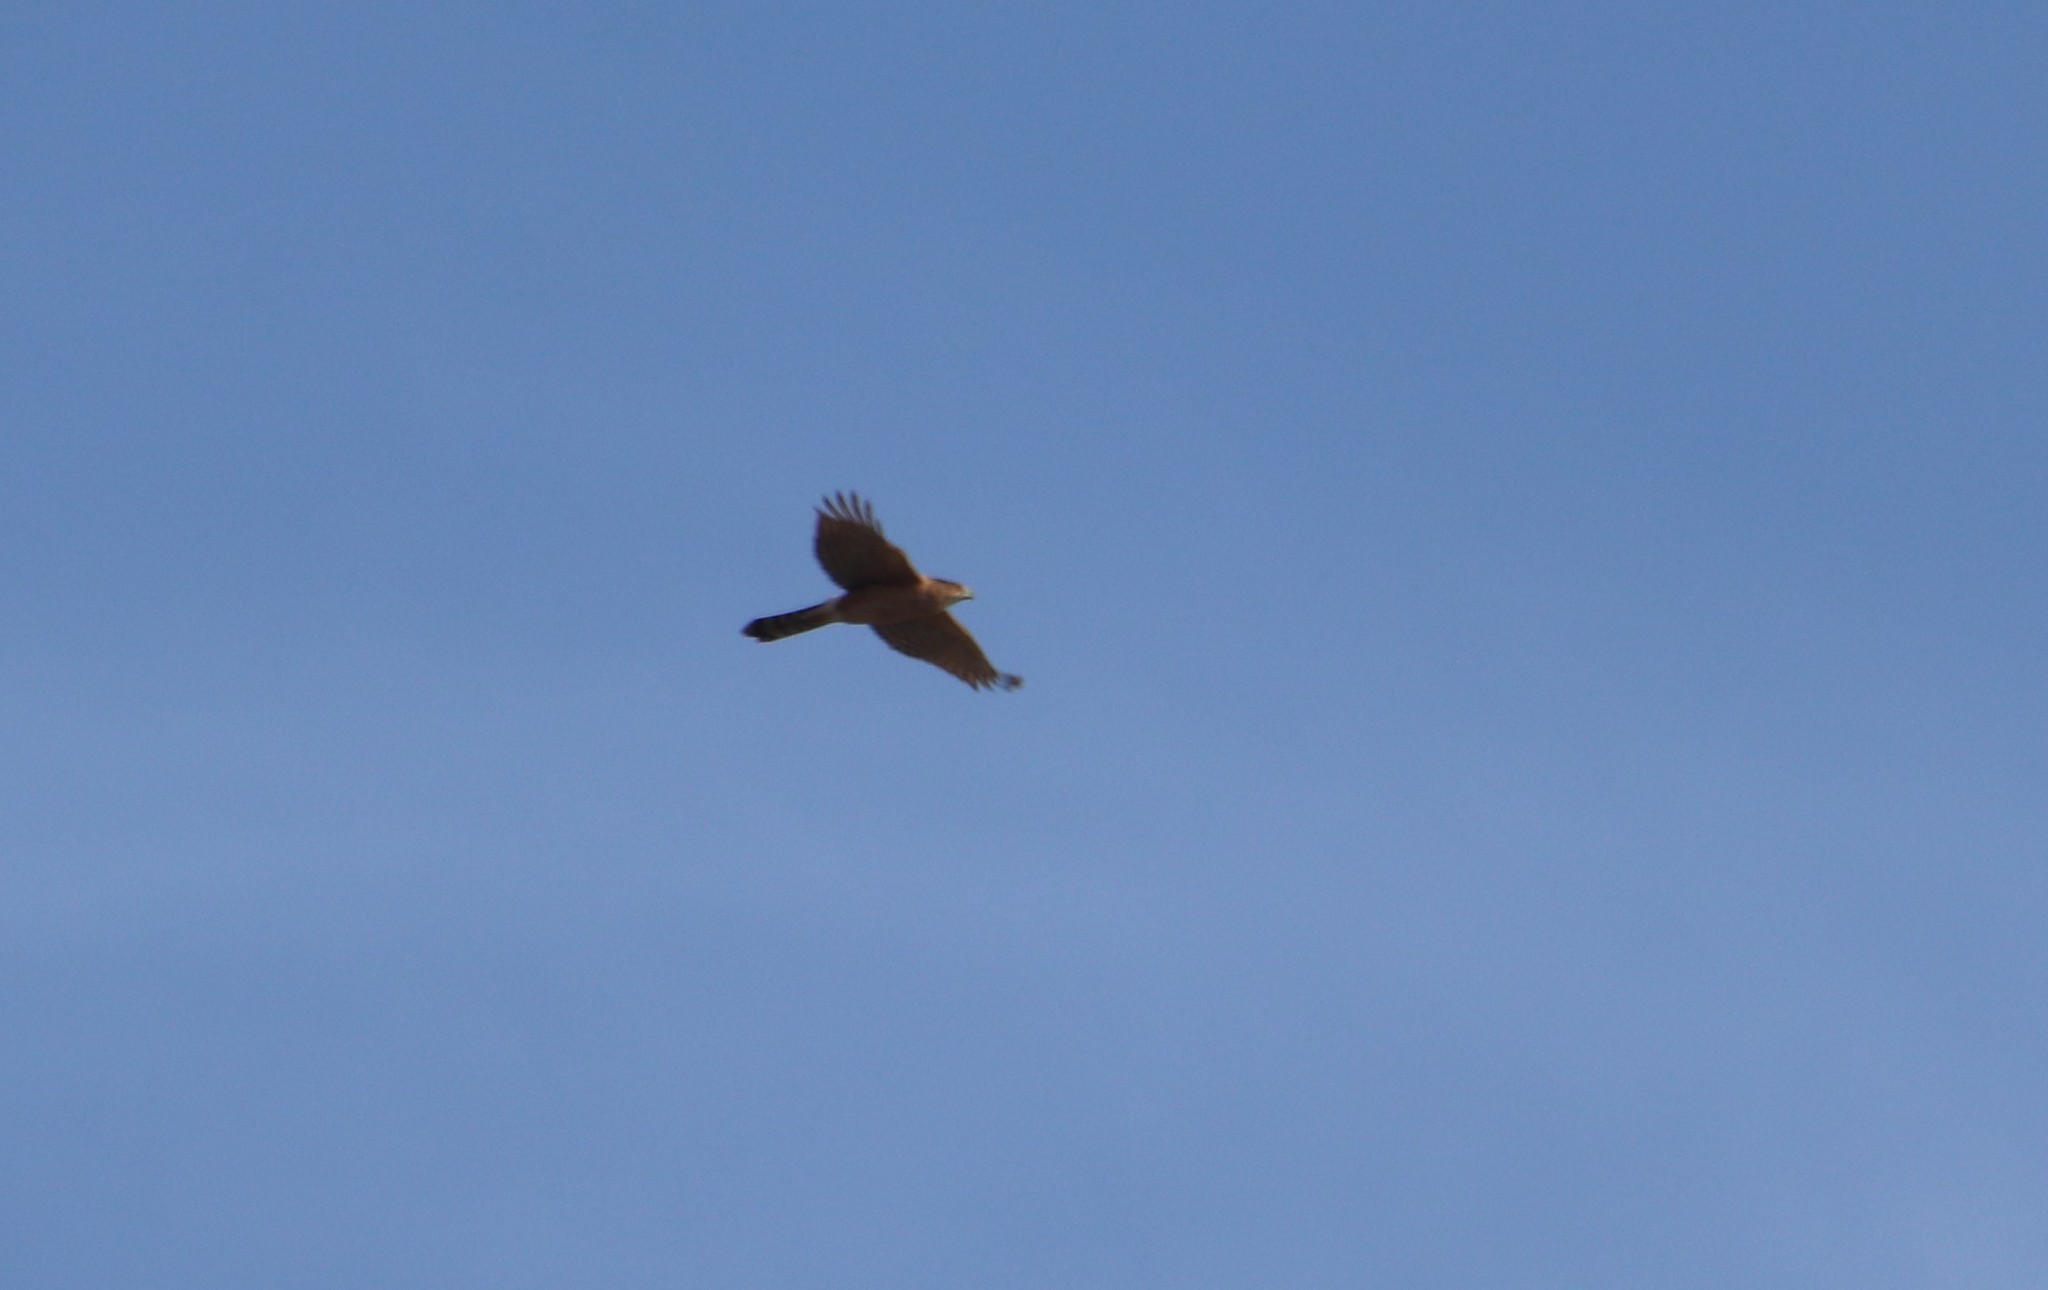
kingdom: Animalia
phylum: Chordata
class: Aves
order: Accipitriformes
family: Accipitridae
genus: Accipiter
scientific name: Accipiter cooperii
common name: Cooper's hawk
